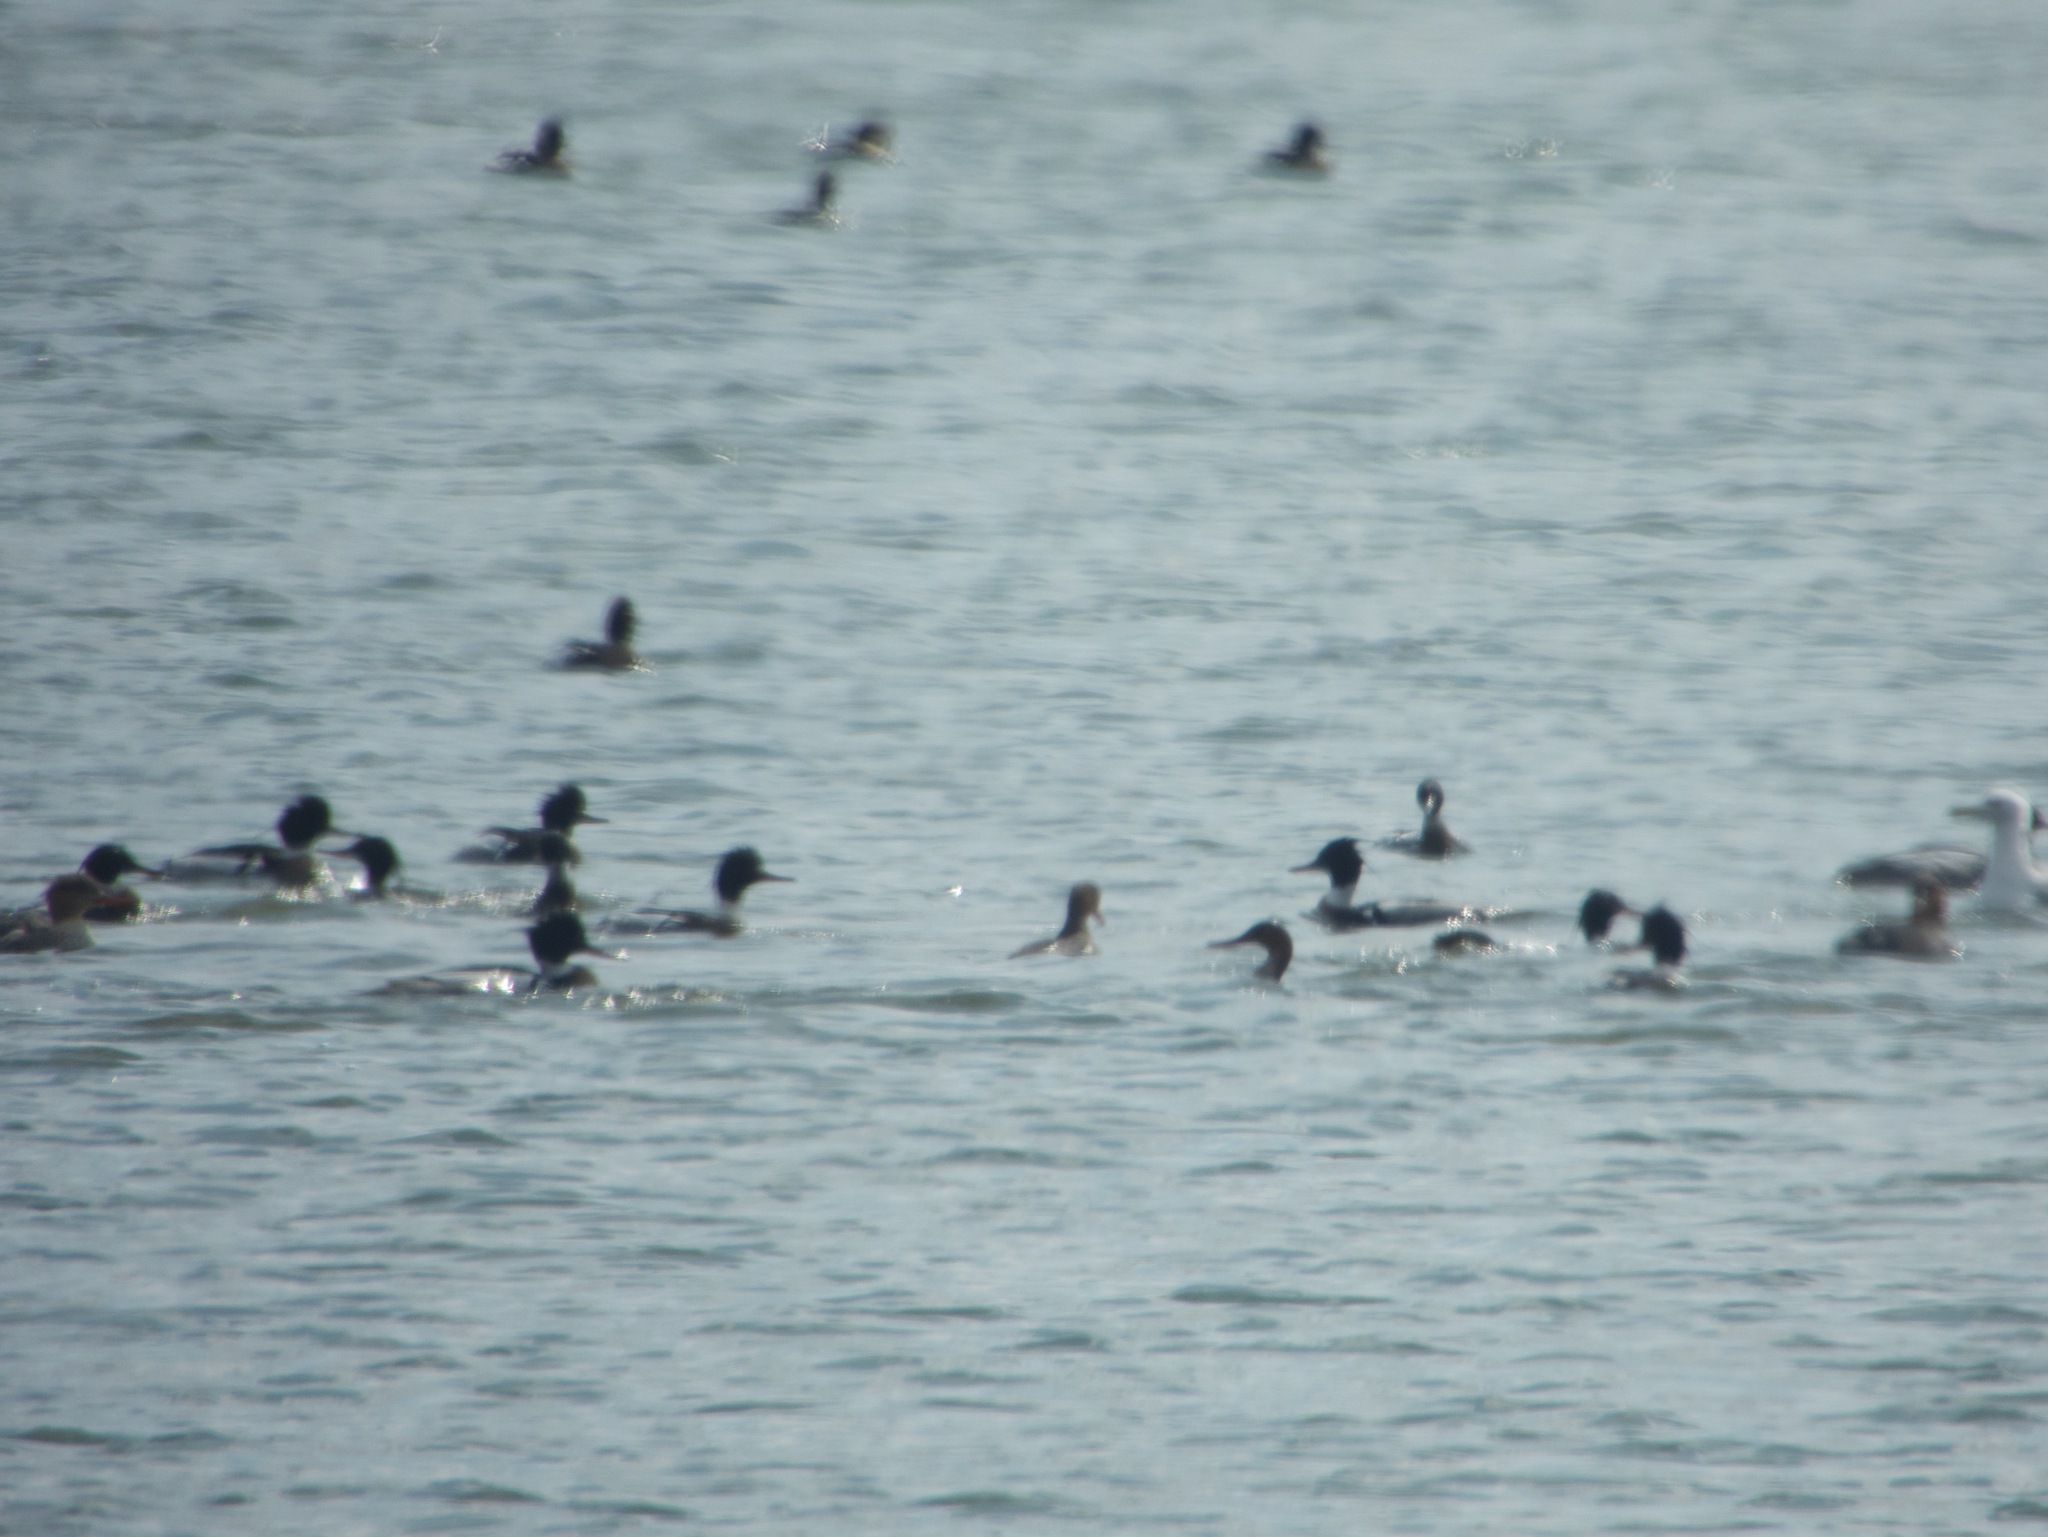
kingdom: Animalia
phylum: Chordata
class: Aves
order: Anseriformes
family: Anatidae
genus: Mergus
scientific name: Mergus serrator
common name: Red-breasted merganser
